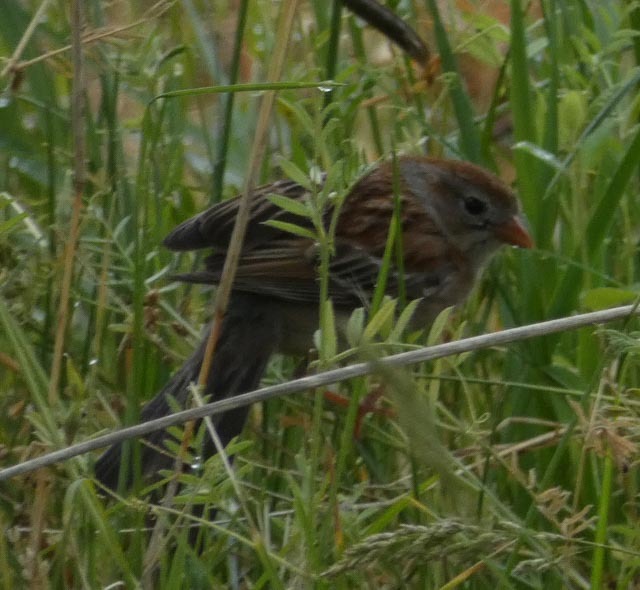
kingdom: Animalia
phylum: Chordata
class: Aves
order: Passeriformes
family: Passerellidae
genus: Spizella
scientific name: Spizella pusilla
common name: Field sparrow
